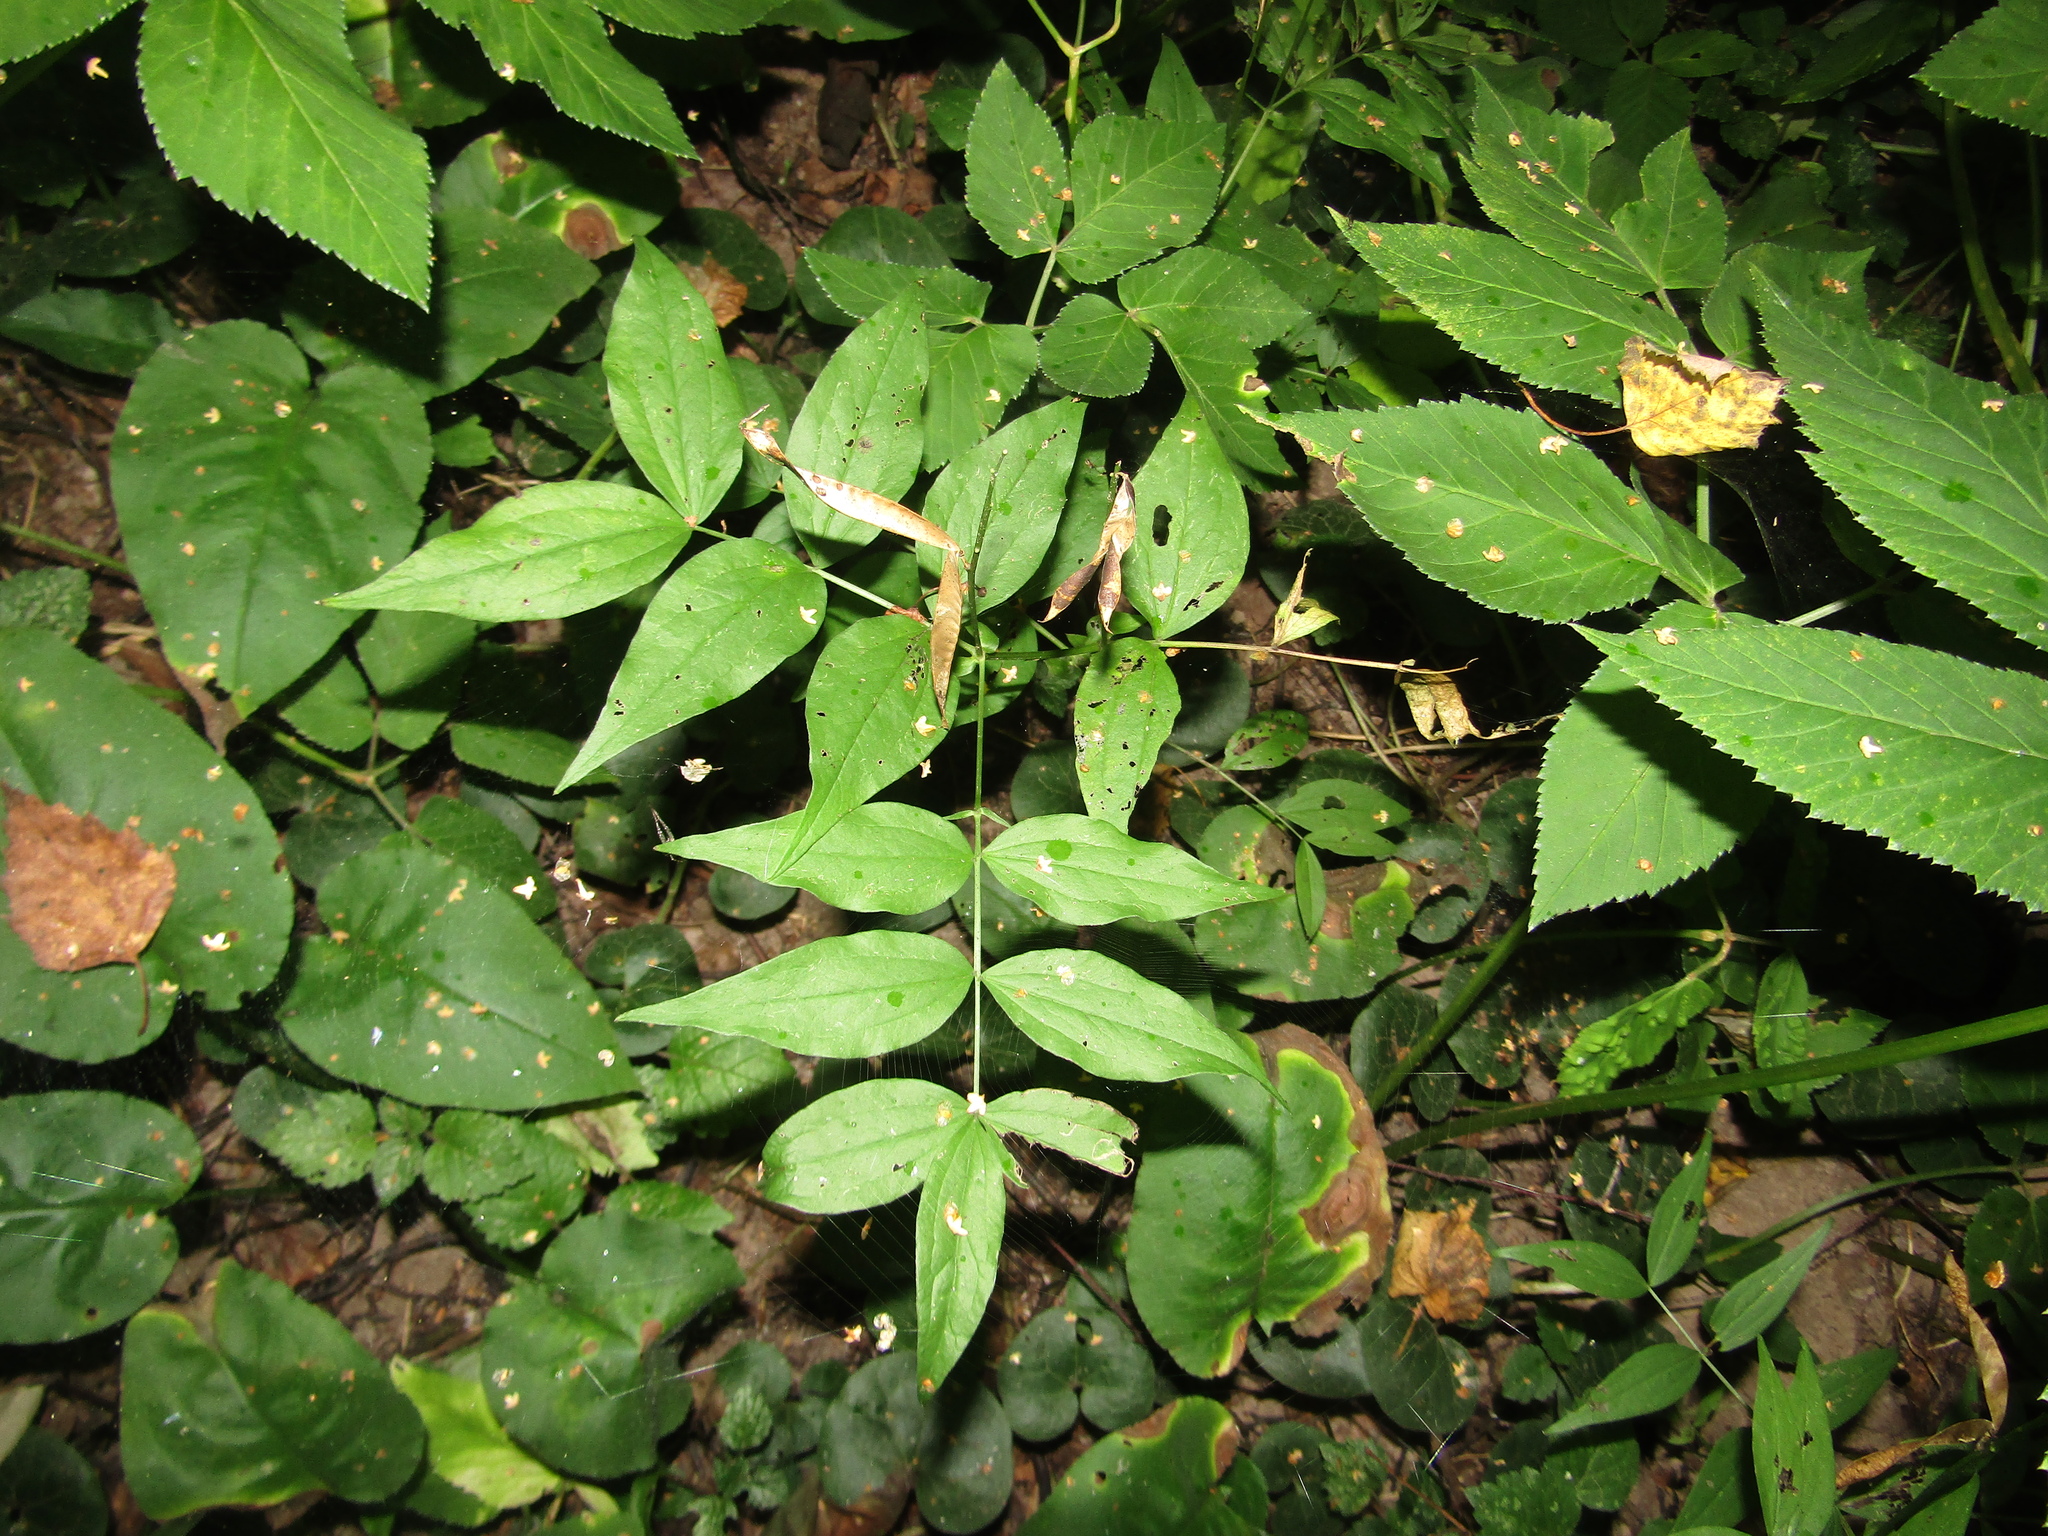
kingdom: Plantae
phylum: Tracheophyta
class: Magnoliopsida
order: Fabales
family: Fabaceae
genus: Lathyrus
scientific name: Lathyrus vernus
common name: Spring pea
